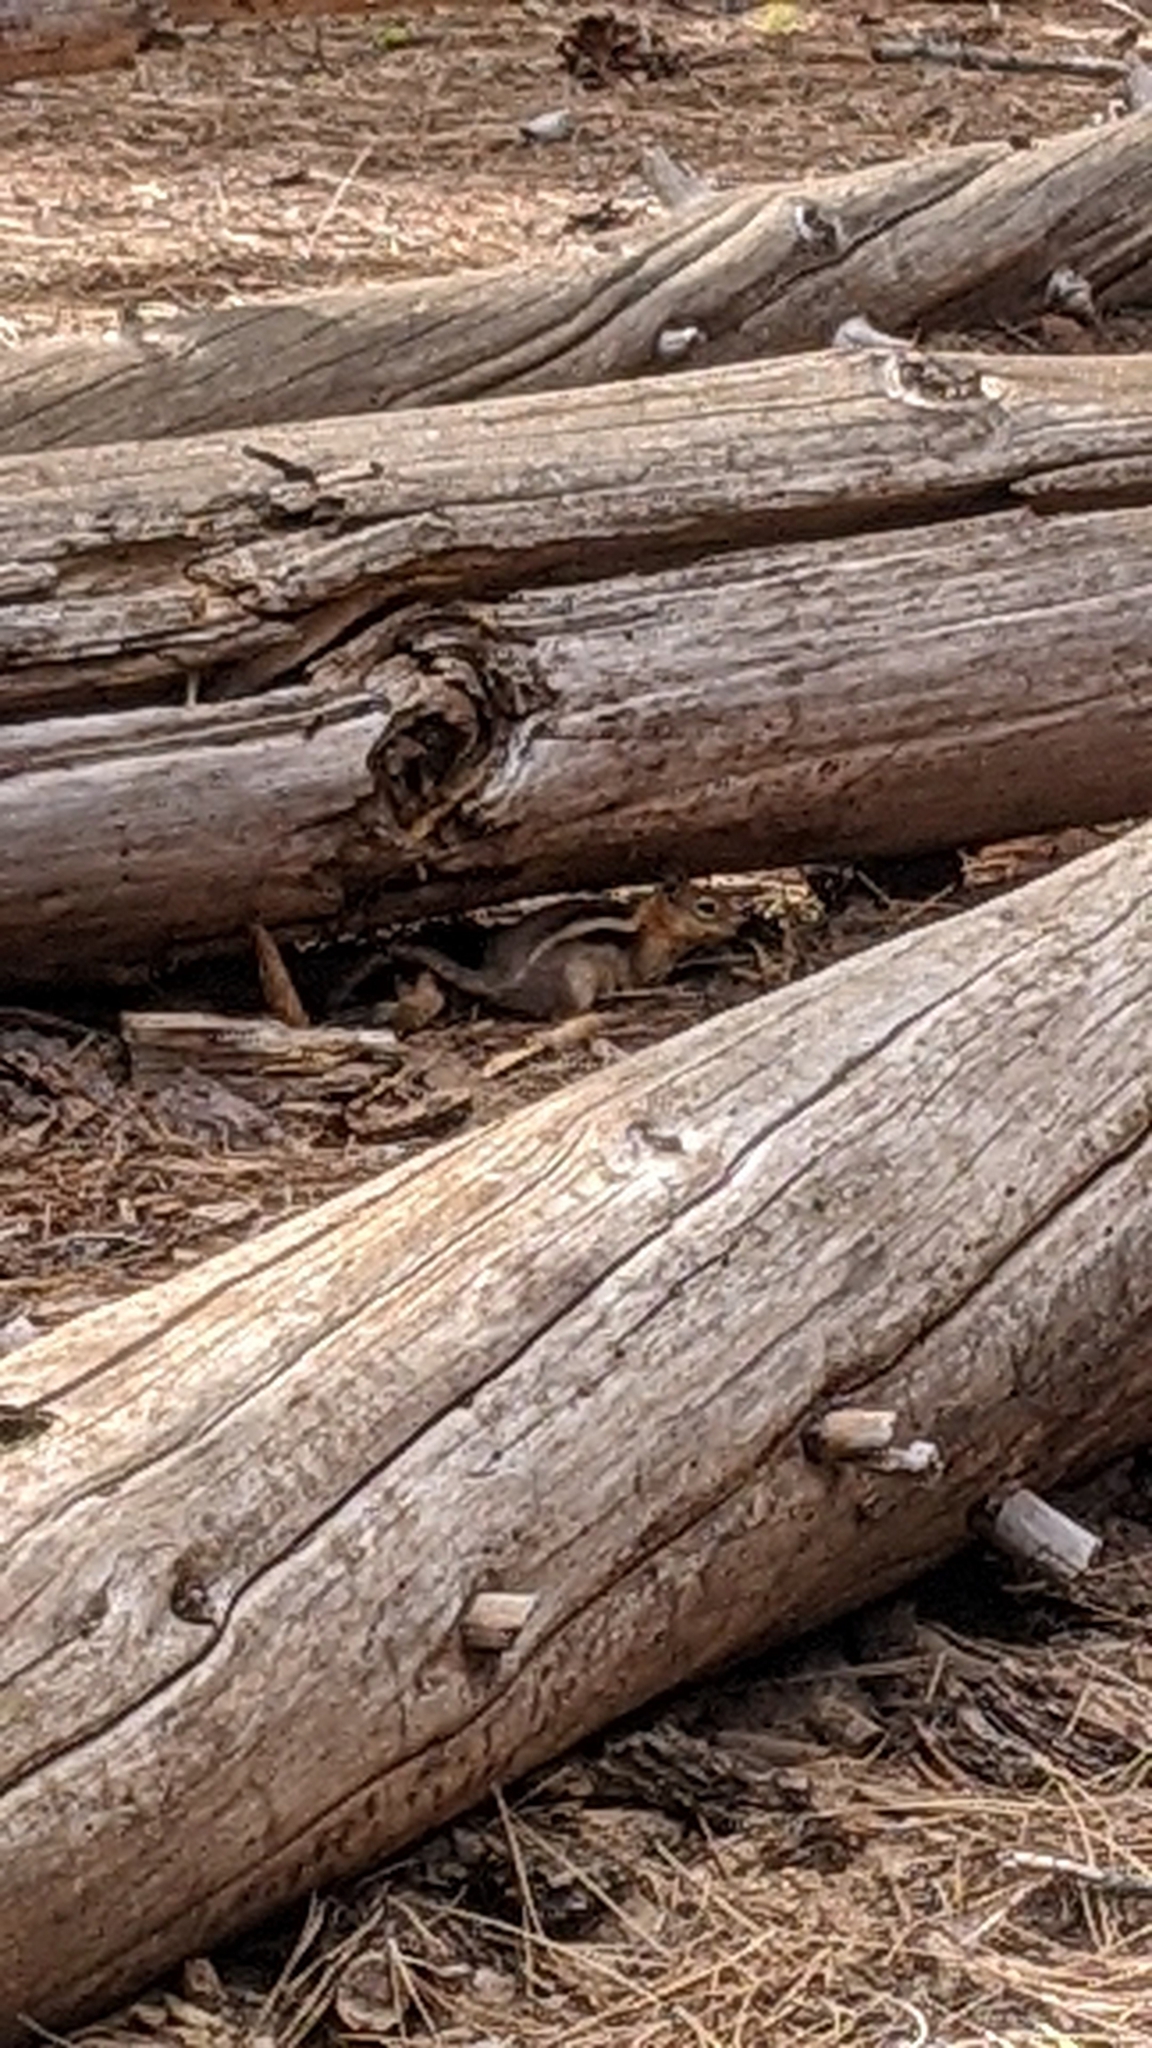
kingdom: Animalia
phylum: Chordata
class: Mammalia
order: Rodentia
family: Sciuridae
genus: Callospermophilus
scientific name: Callospermophilus lateralis
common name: Golden-mantled ground squirrel
